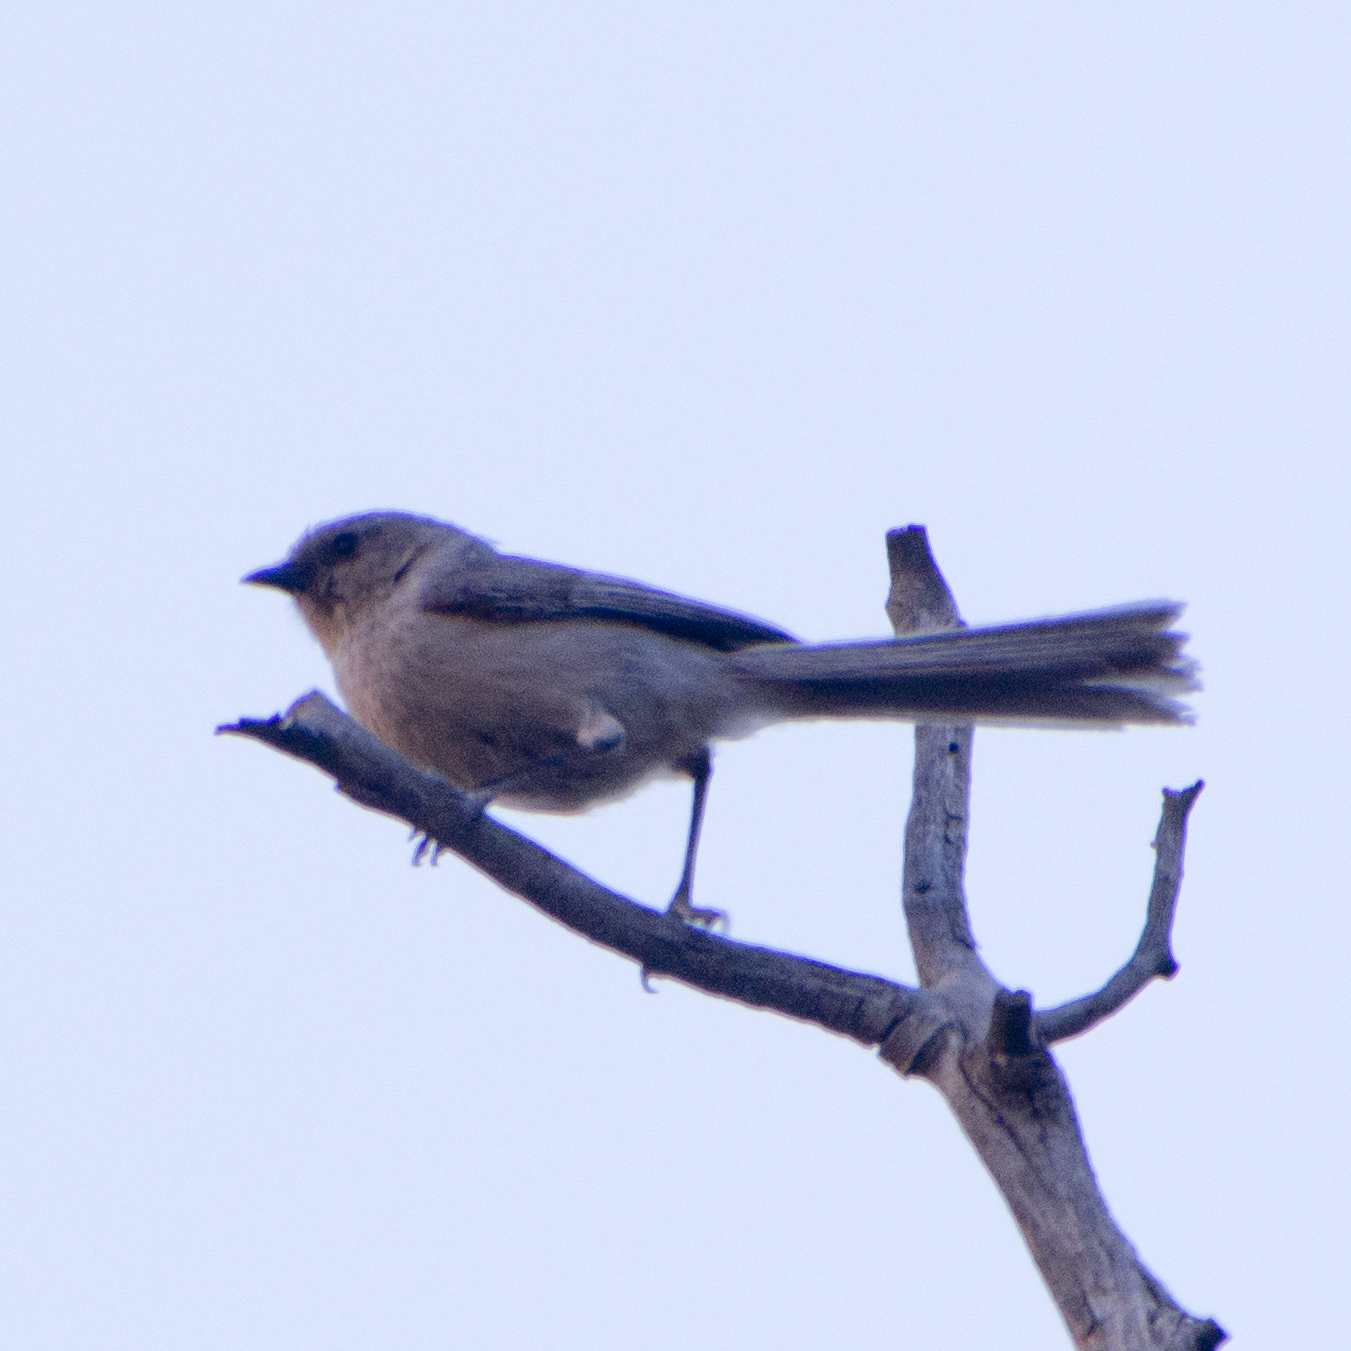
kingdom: Animalia
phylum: Chordata
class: Aves
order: Passeriformes
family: Aegithalidae
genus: Psaltriparus
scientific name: Psaltriparus minimus
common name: American bushtit
